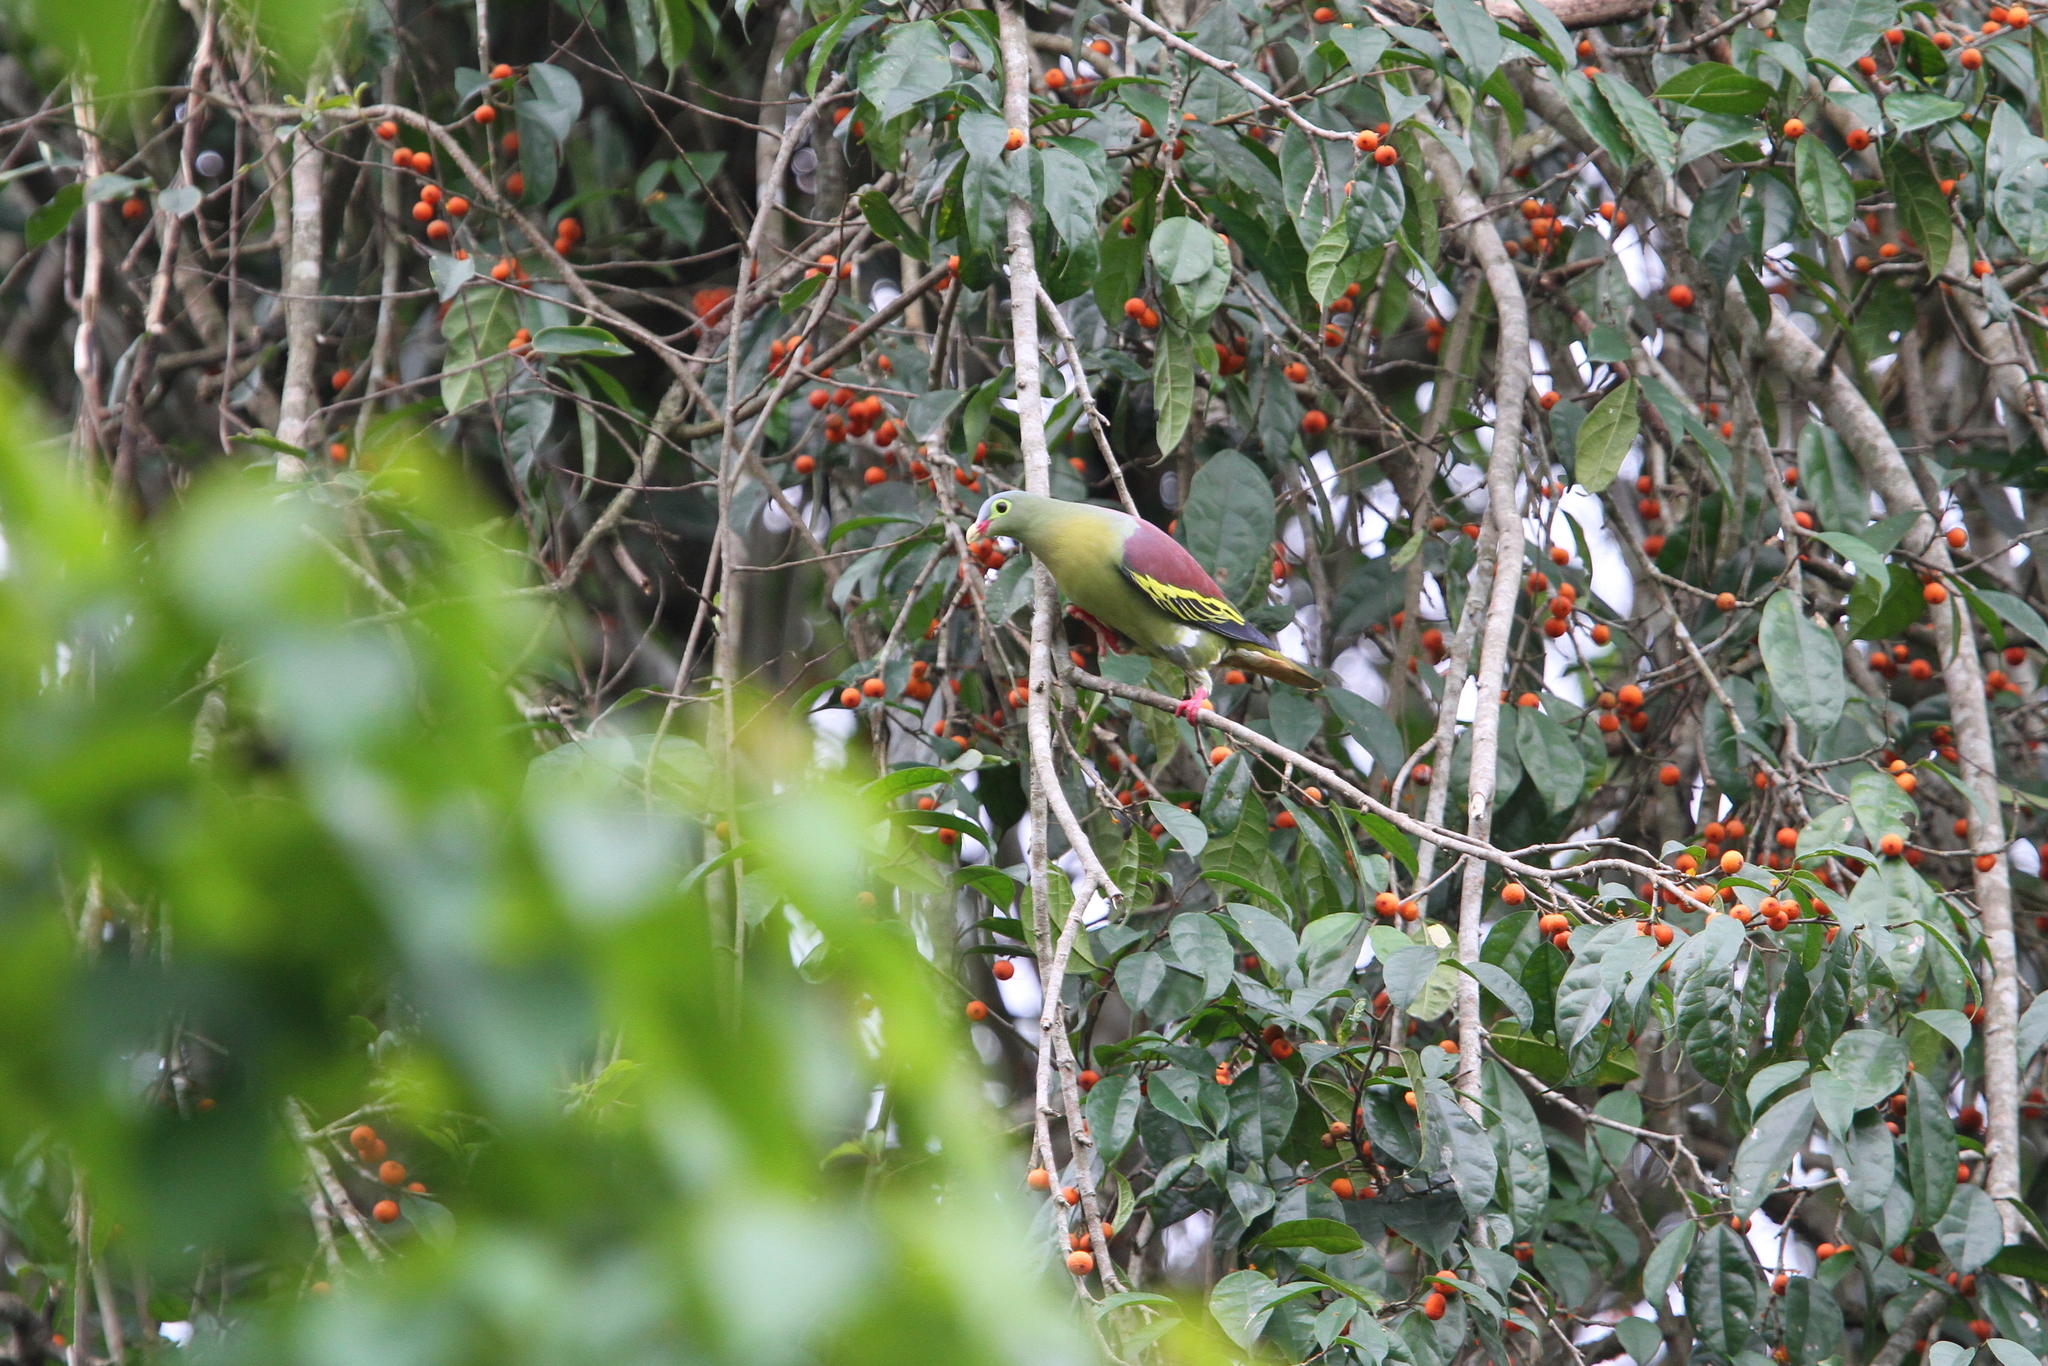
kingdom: Animalia
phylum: Chordata
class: Aves
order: Columbiformes
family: Columbidae
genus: Treron
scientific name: Treron curvirostra
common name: Thick-billed green pigeon
